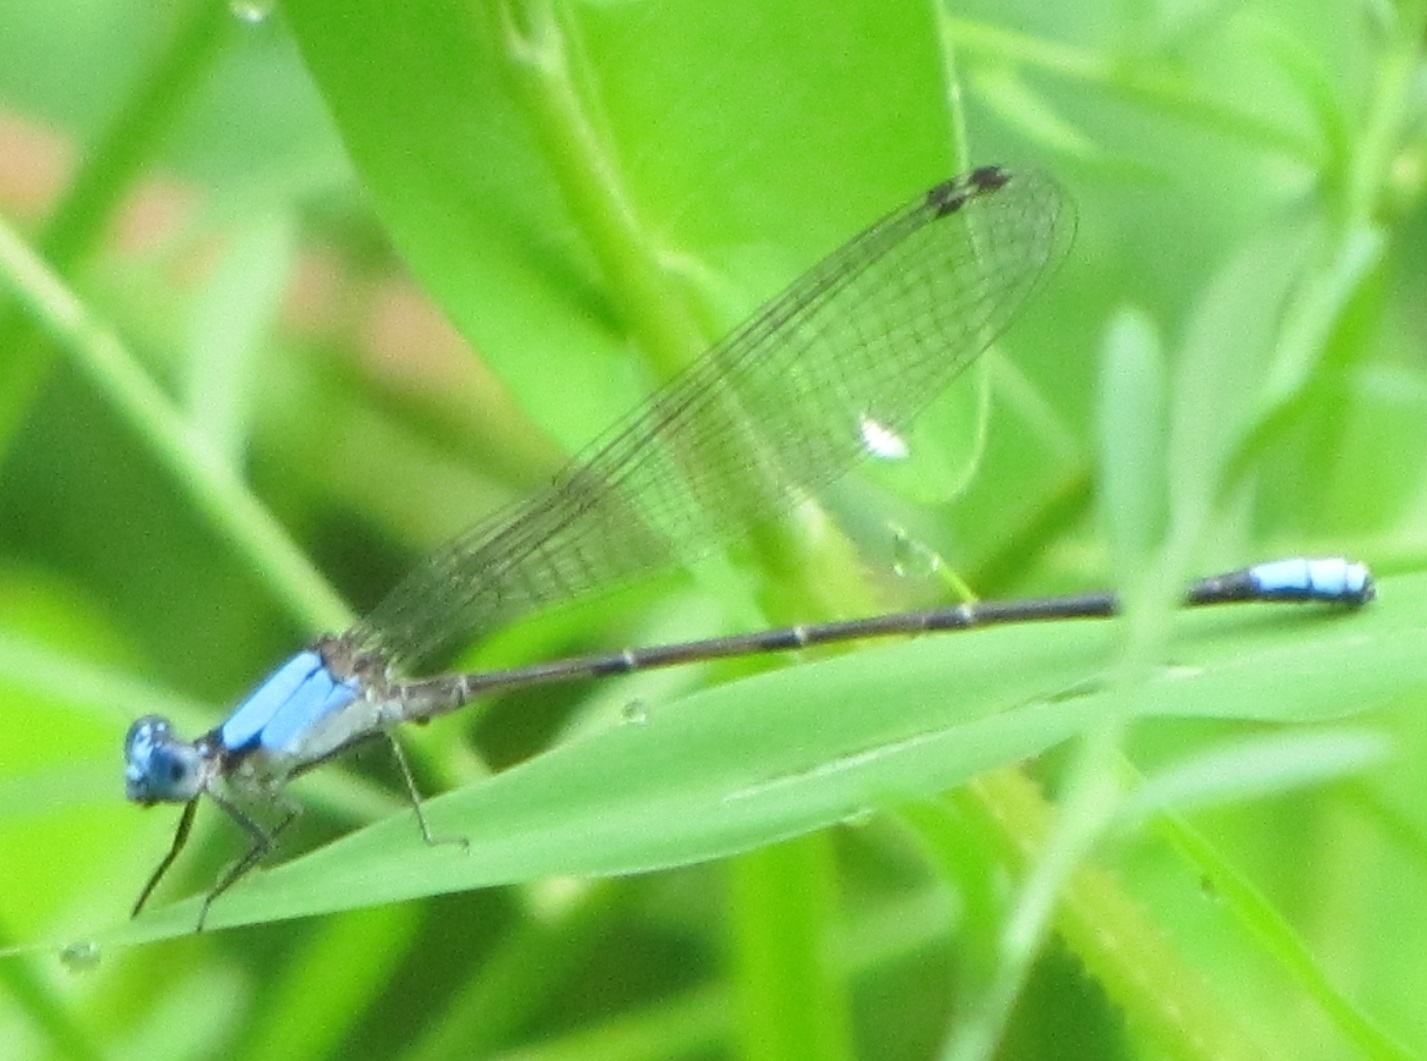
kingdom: Animalia
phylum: Arthropoda
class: Insecta
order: Odonata
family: Coenagrionidae
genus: Argia
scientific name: Argia apicalis
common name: Blue-fronted dancer
